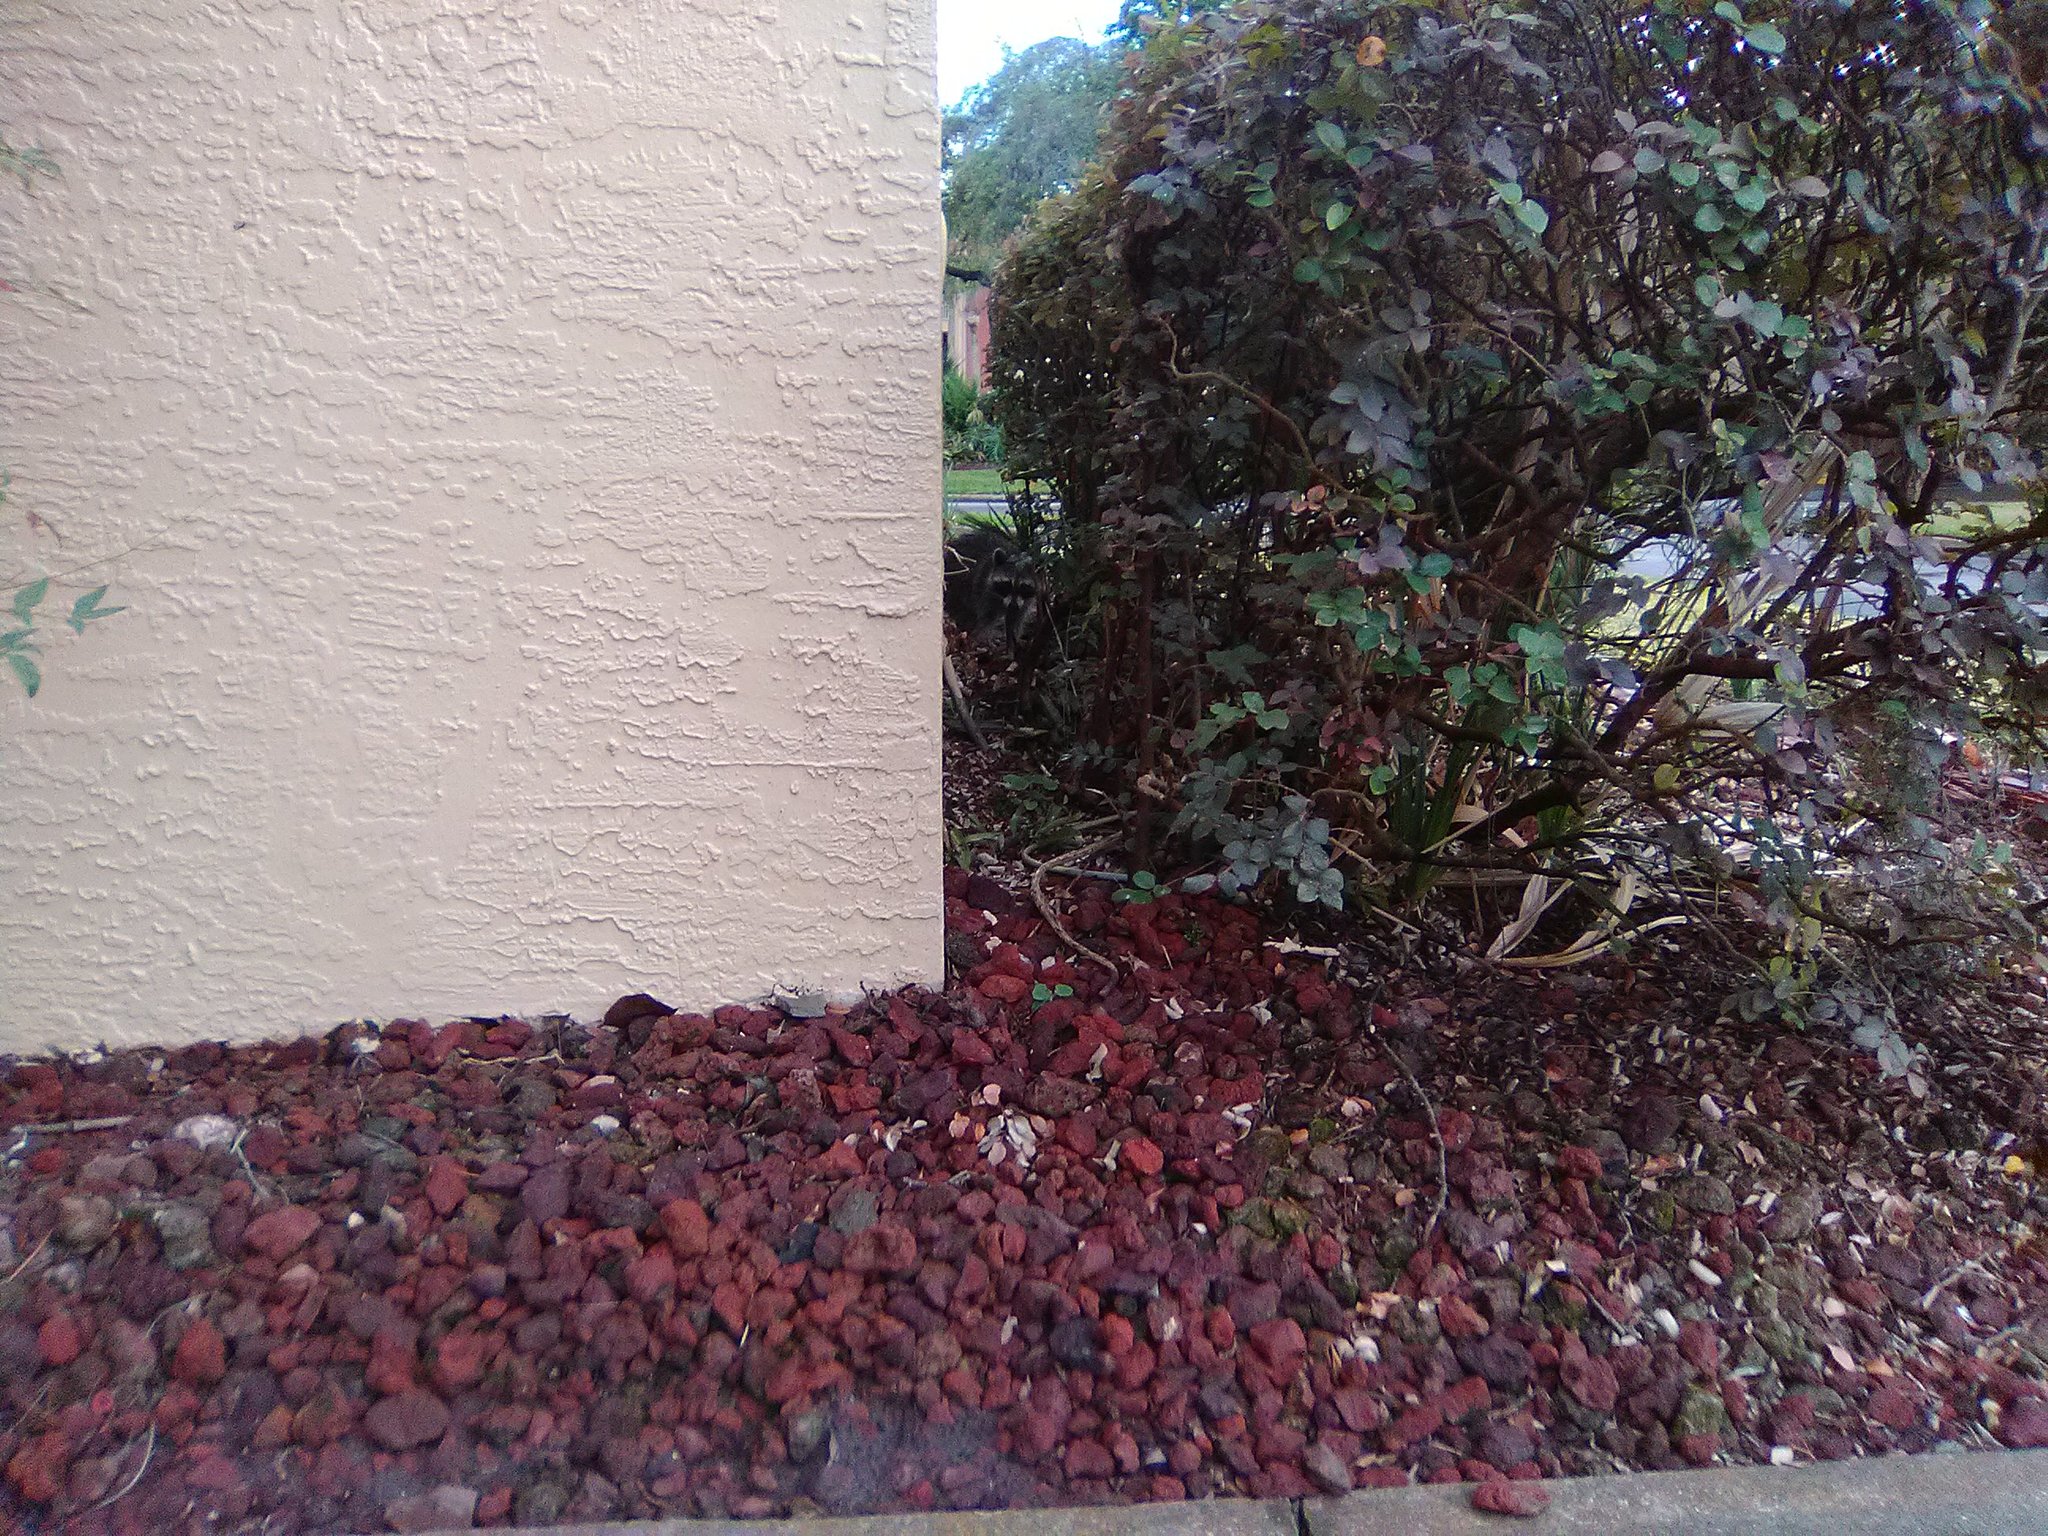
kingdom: Animalia
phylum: Chordata
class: Mammalia
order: Carnivora
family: Procyonidae
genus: Procyon
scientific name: Procyon lotor
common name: Raccoon
